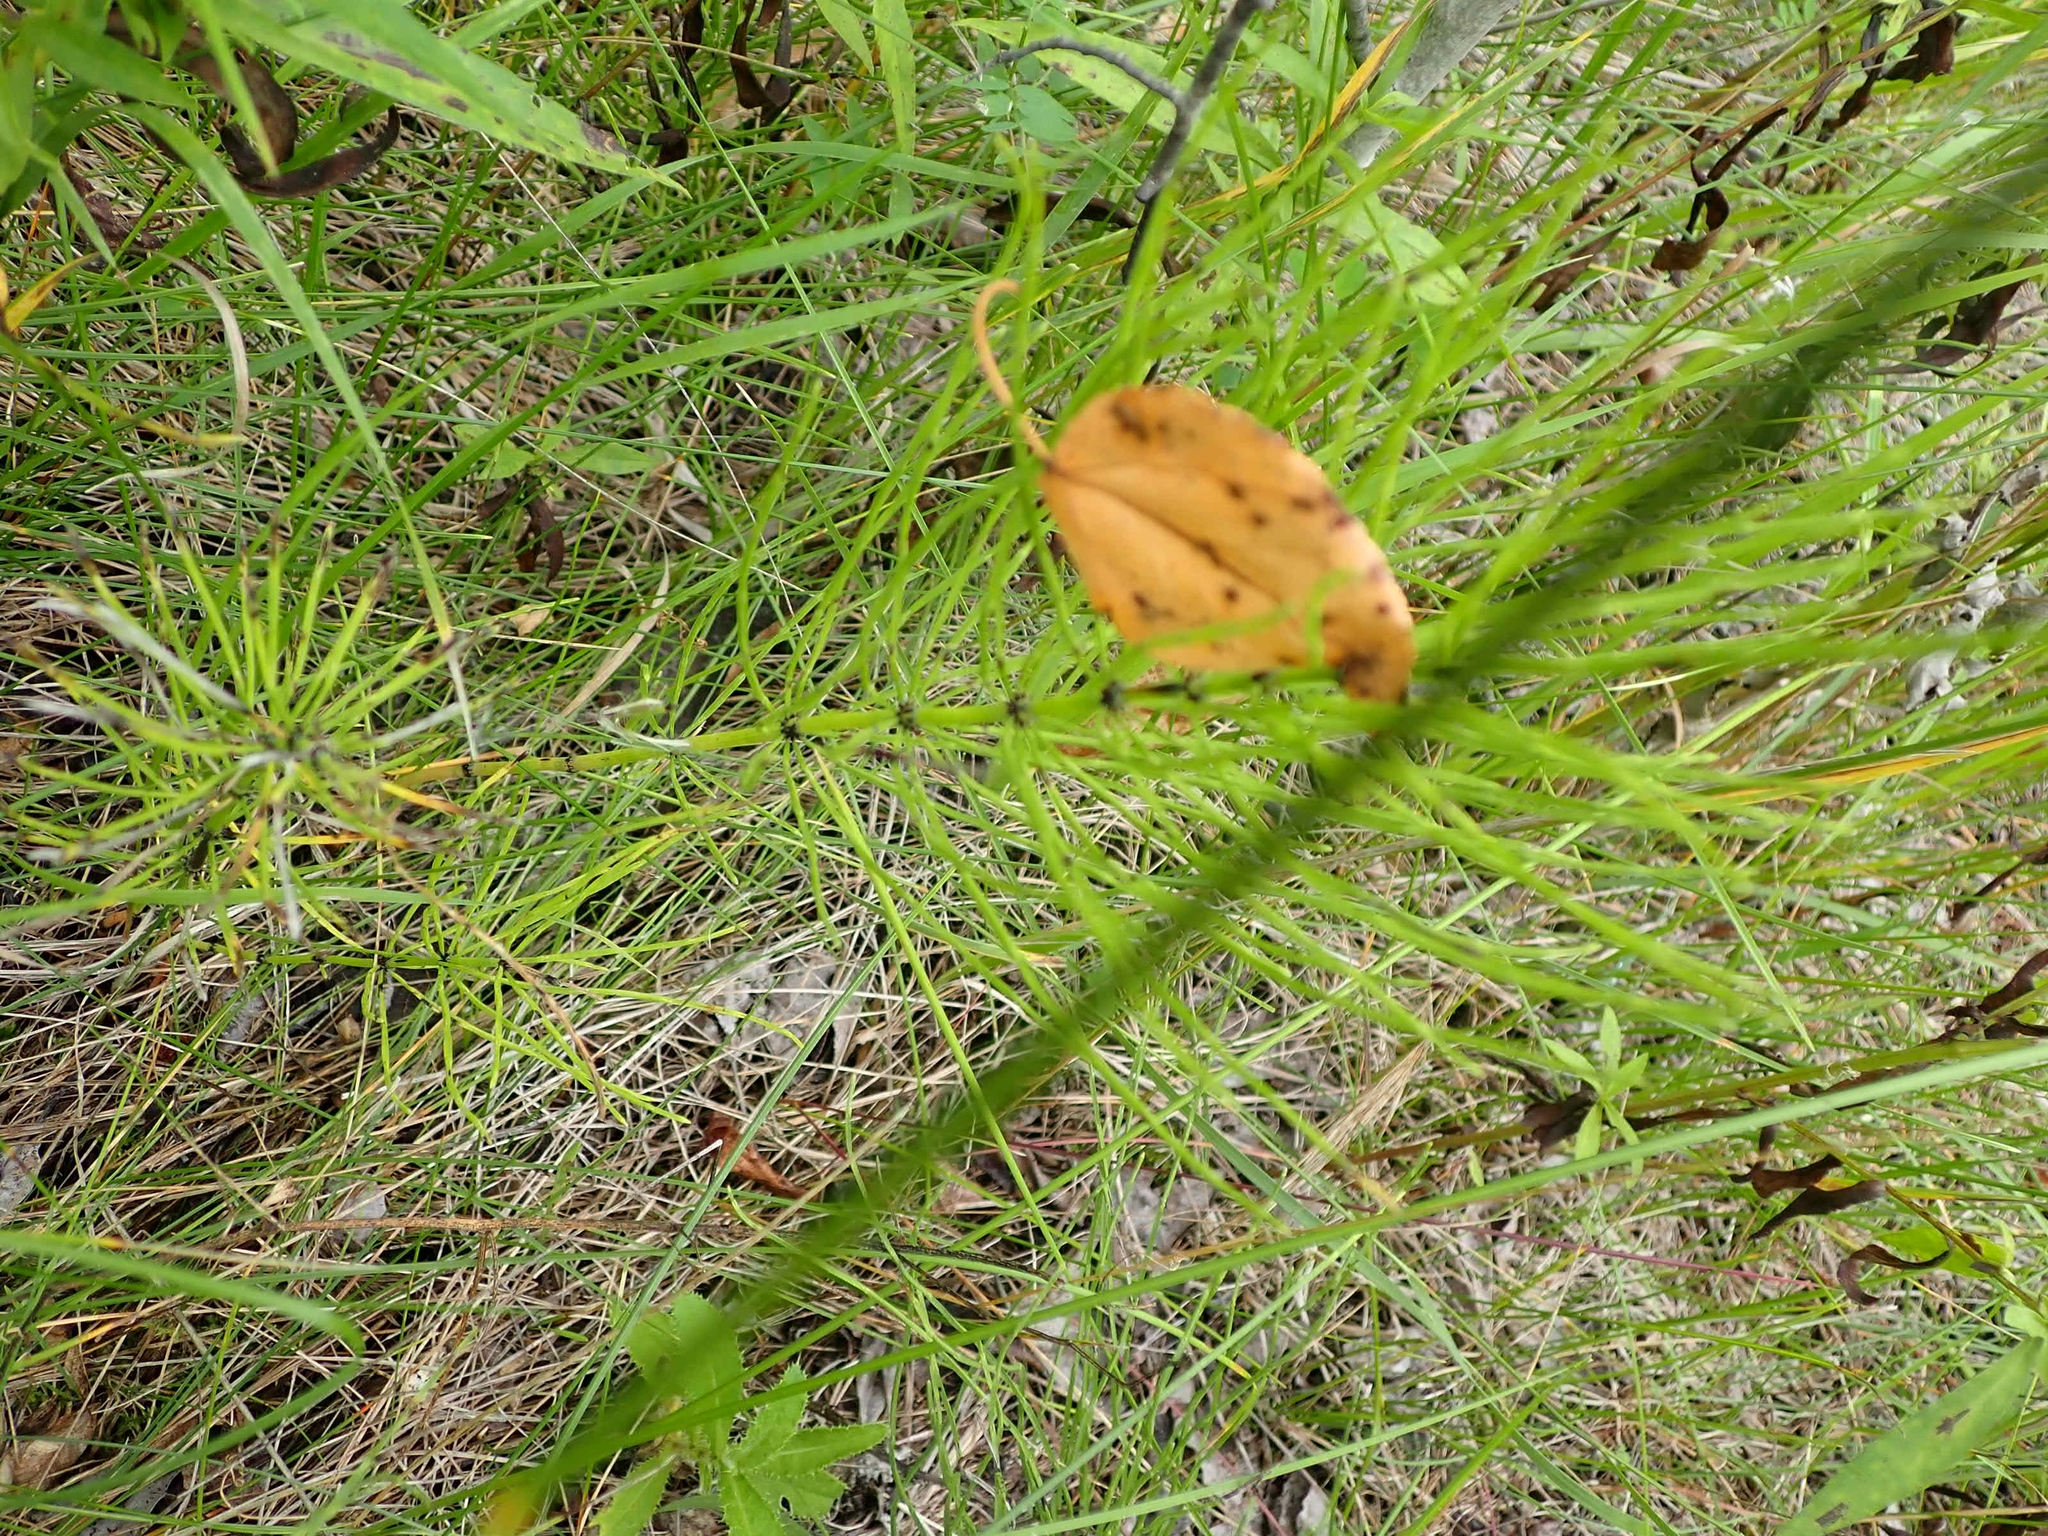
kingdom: Plantae
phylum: Tracheophyta
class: Polypodiopsida
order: Equisetales
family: Equisetaceae
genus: Equisetum
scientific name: Equisetum arvense
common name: Field horsetail
